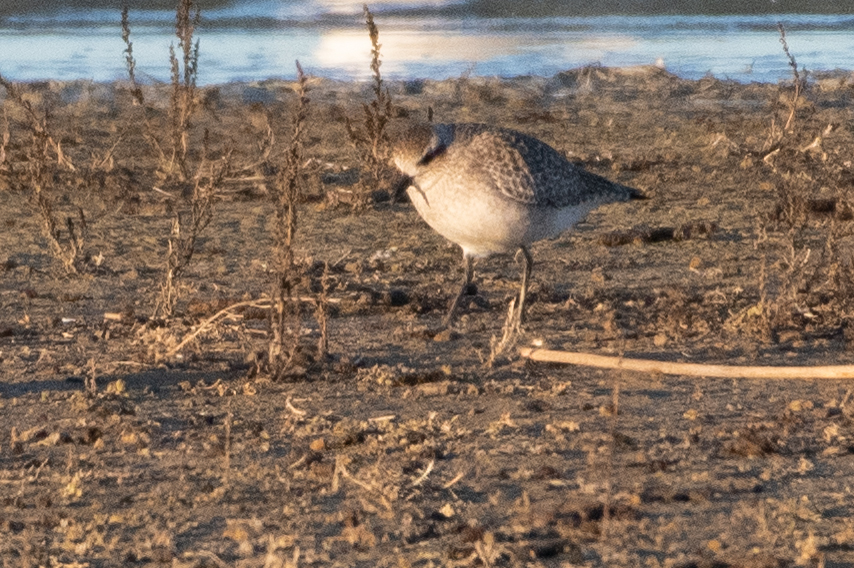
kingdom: Animalia
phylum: Chordata
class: Aves
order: Charadriiformes
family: Charadriidae
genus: Pluvialis
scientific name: Pluvialis squatarola
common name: Grey plover
